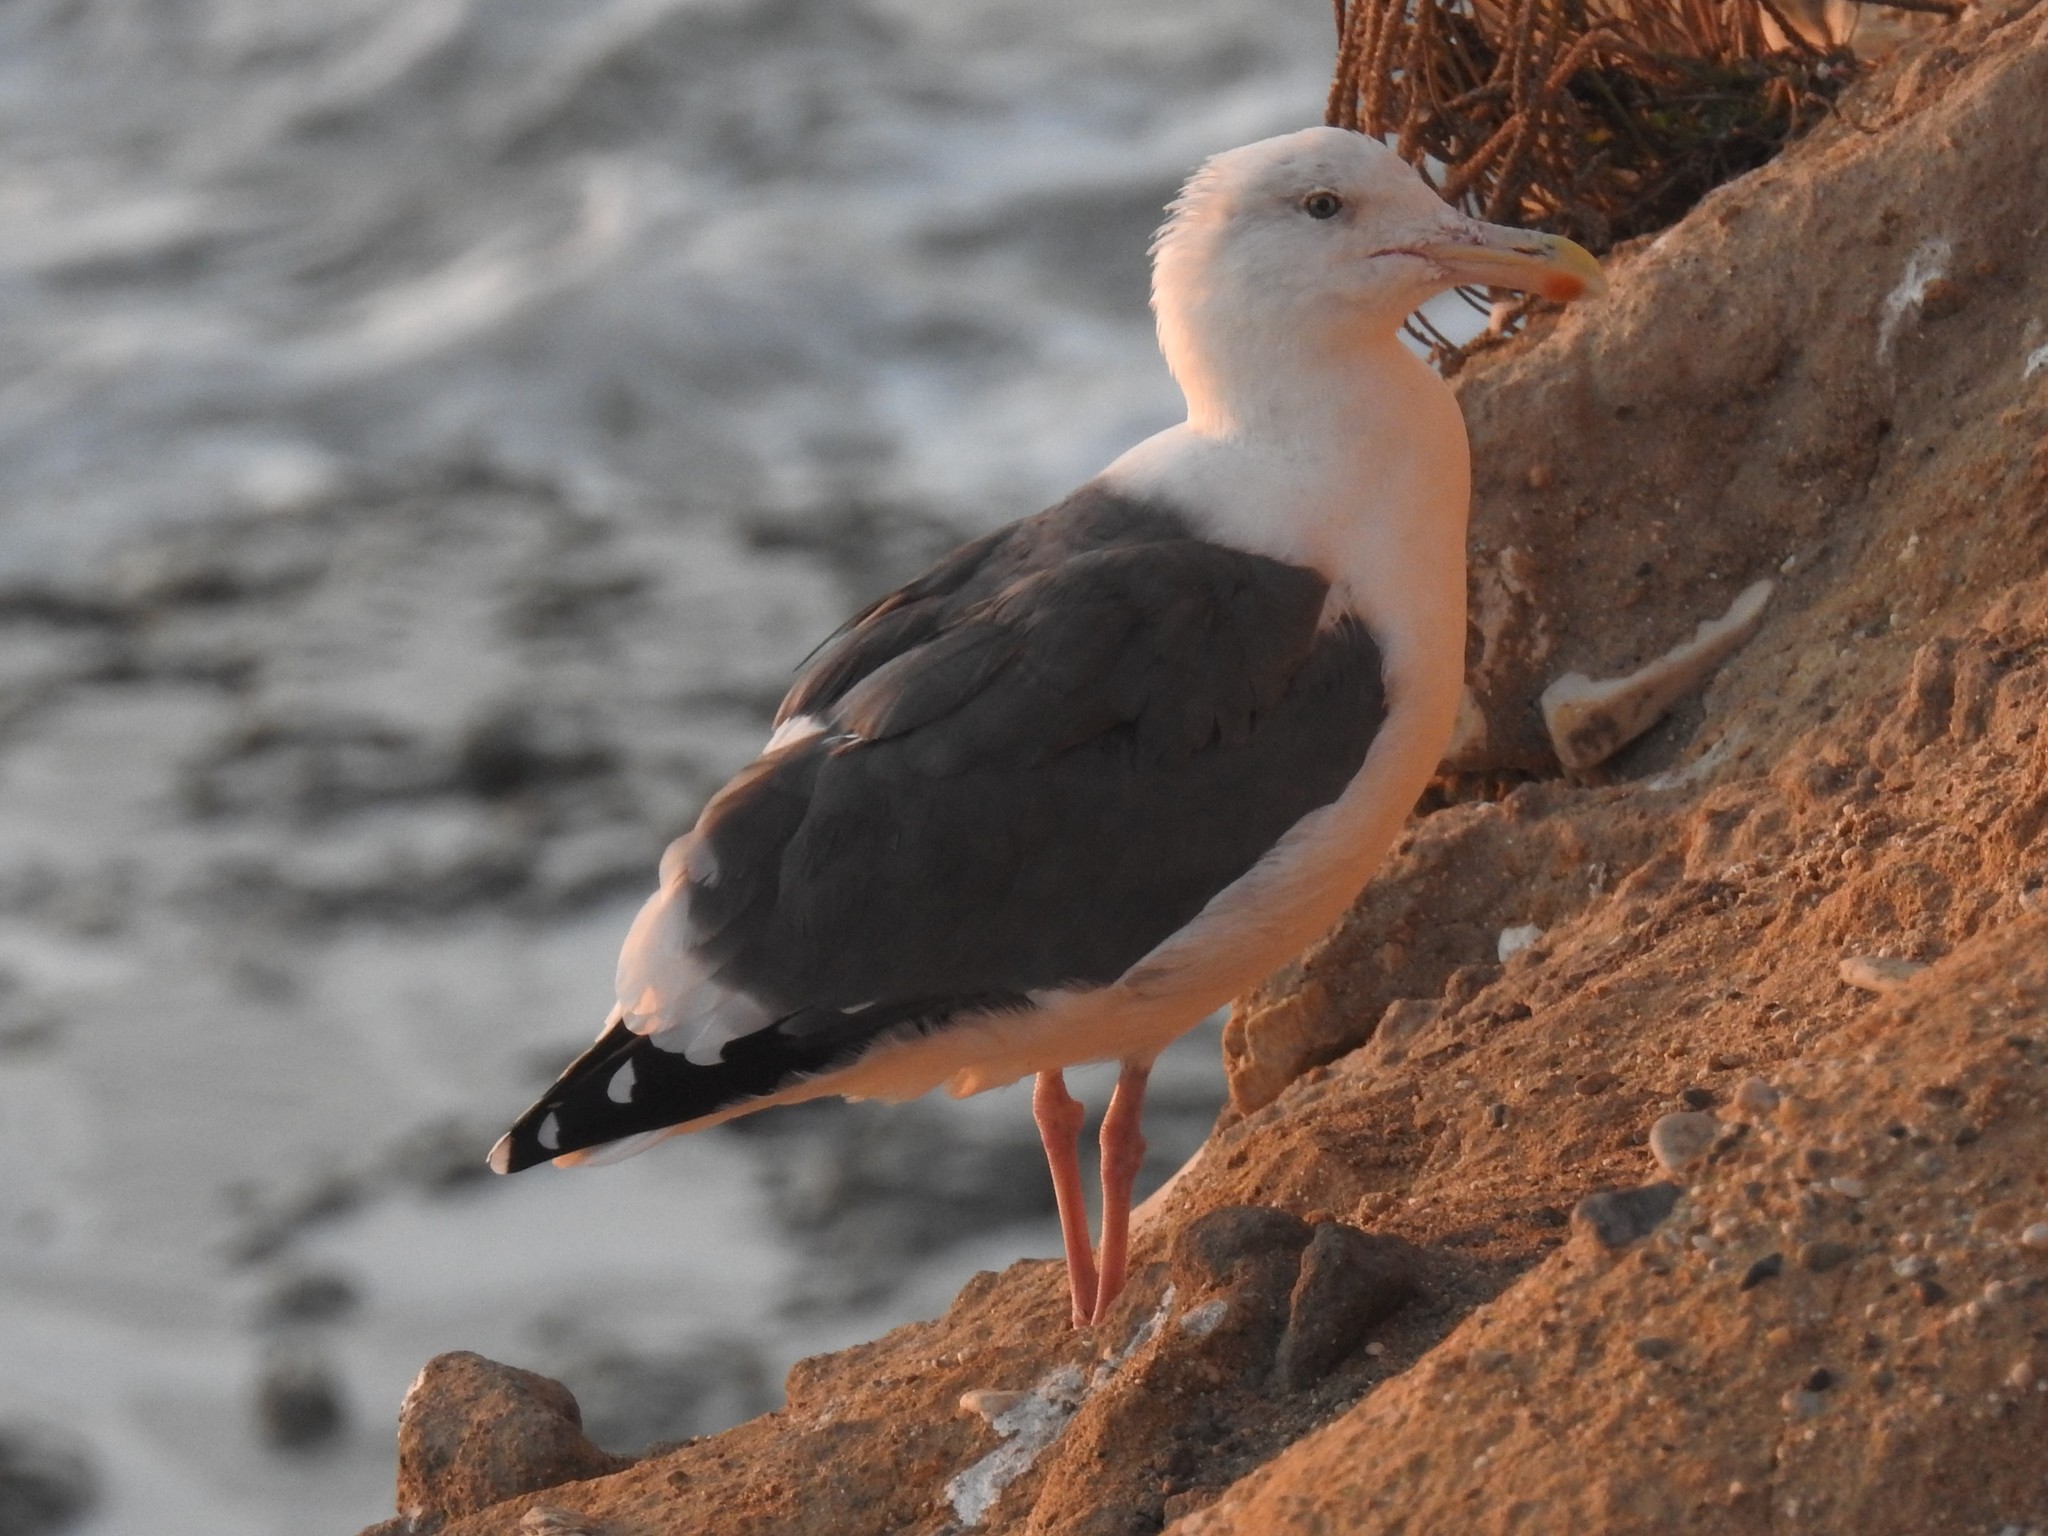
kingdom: Animalia
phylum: Chordata
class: Aves
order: Charadriiformes
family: Laridae
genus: Larus
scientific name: Larus occidentalis
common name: Western gull
